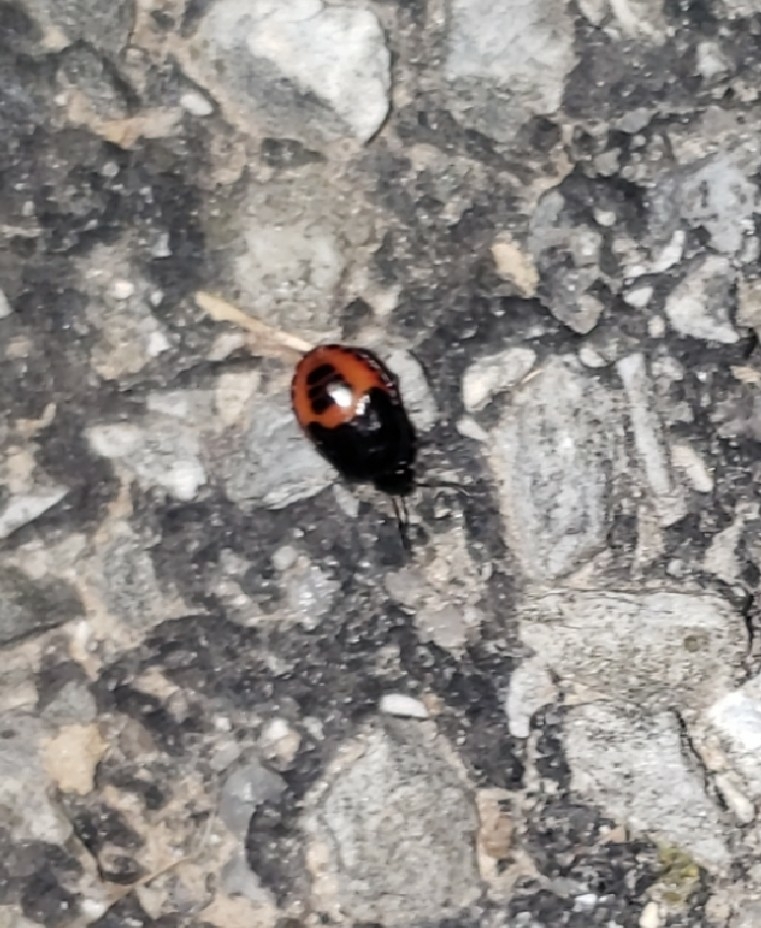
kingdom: Animalia
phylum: Arthropoda
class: Insecta
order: Hemiptera
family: Cydnidae
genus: Sehirus
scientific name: Sehirus cinctus
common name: White-margined burrower bug
